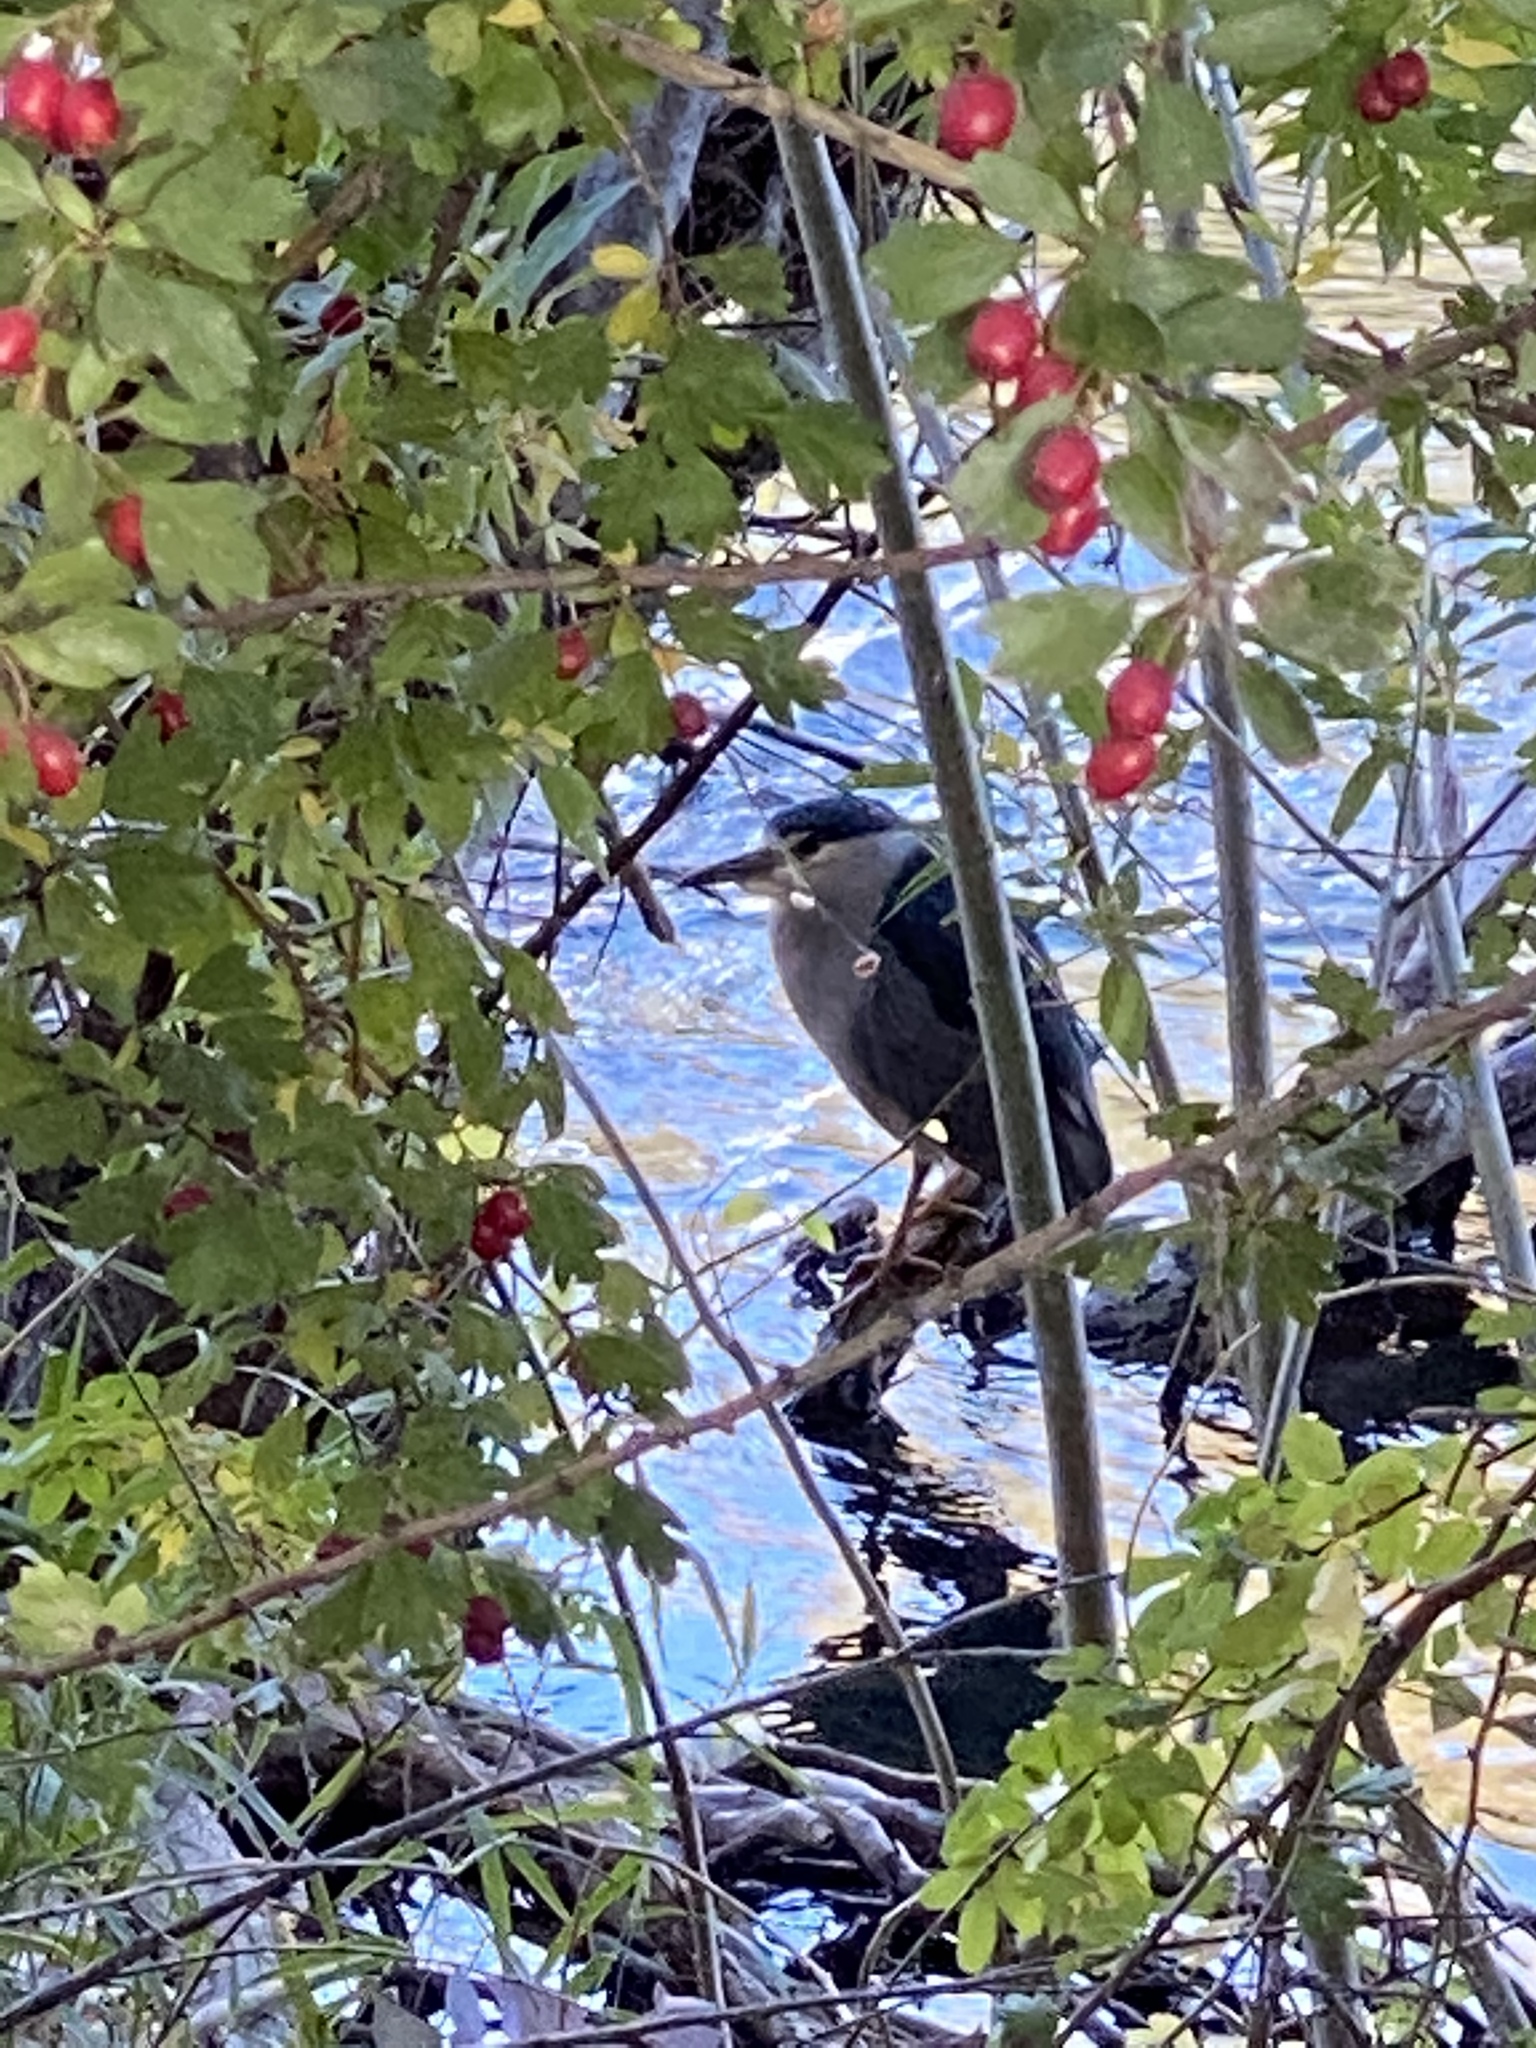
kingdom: Animalia
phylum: Chordata
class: Aves
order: Pelecaniformes
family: Ardeidae
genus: Nycticorax
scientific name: Nycticorax nycticorax
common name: Black-crowned night heron
